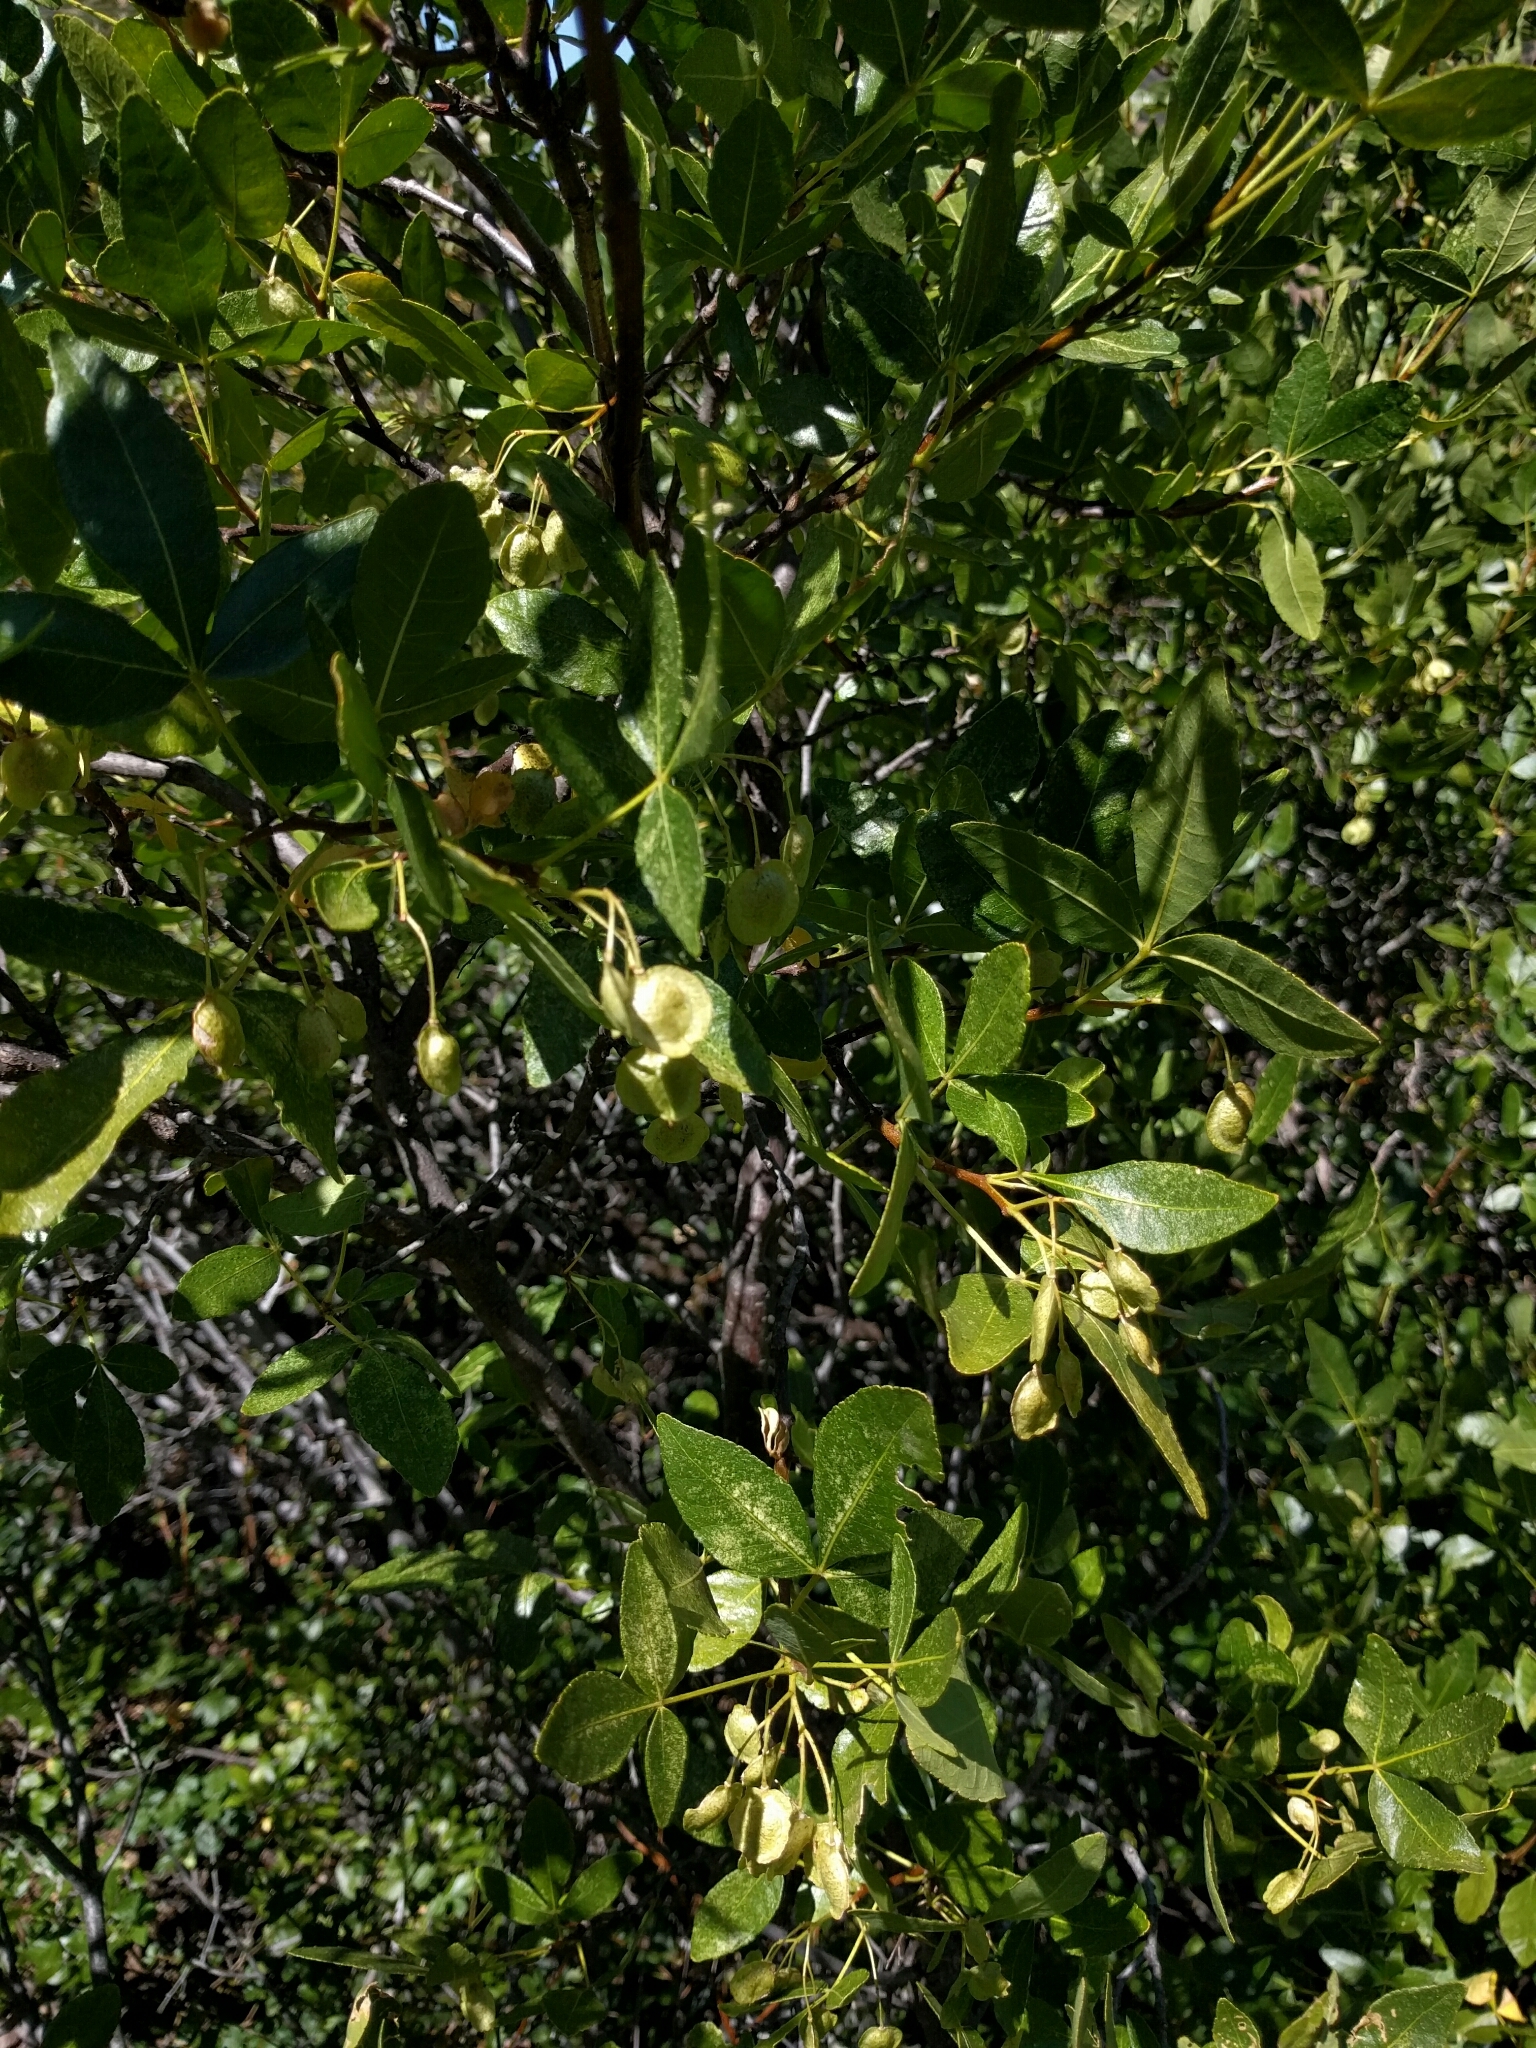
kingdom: Plantae
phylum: Tracheophyta
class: Magnoliopsida
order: Sapindales
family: Rutaceae
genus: Ptelea
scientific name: Ptelea crenulata
